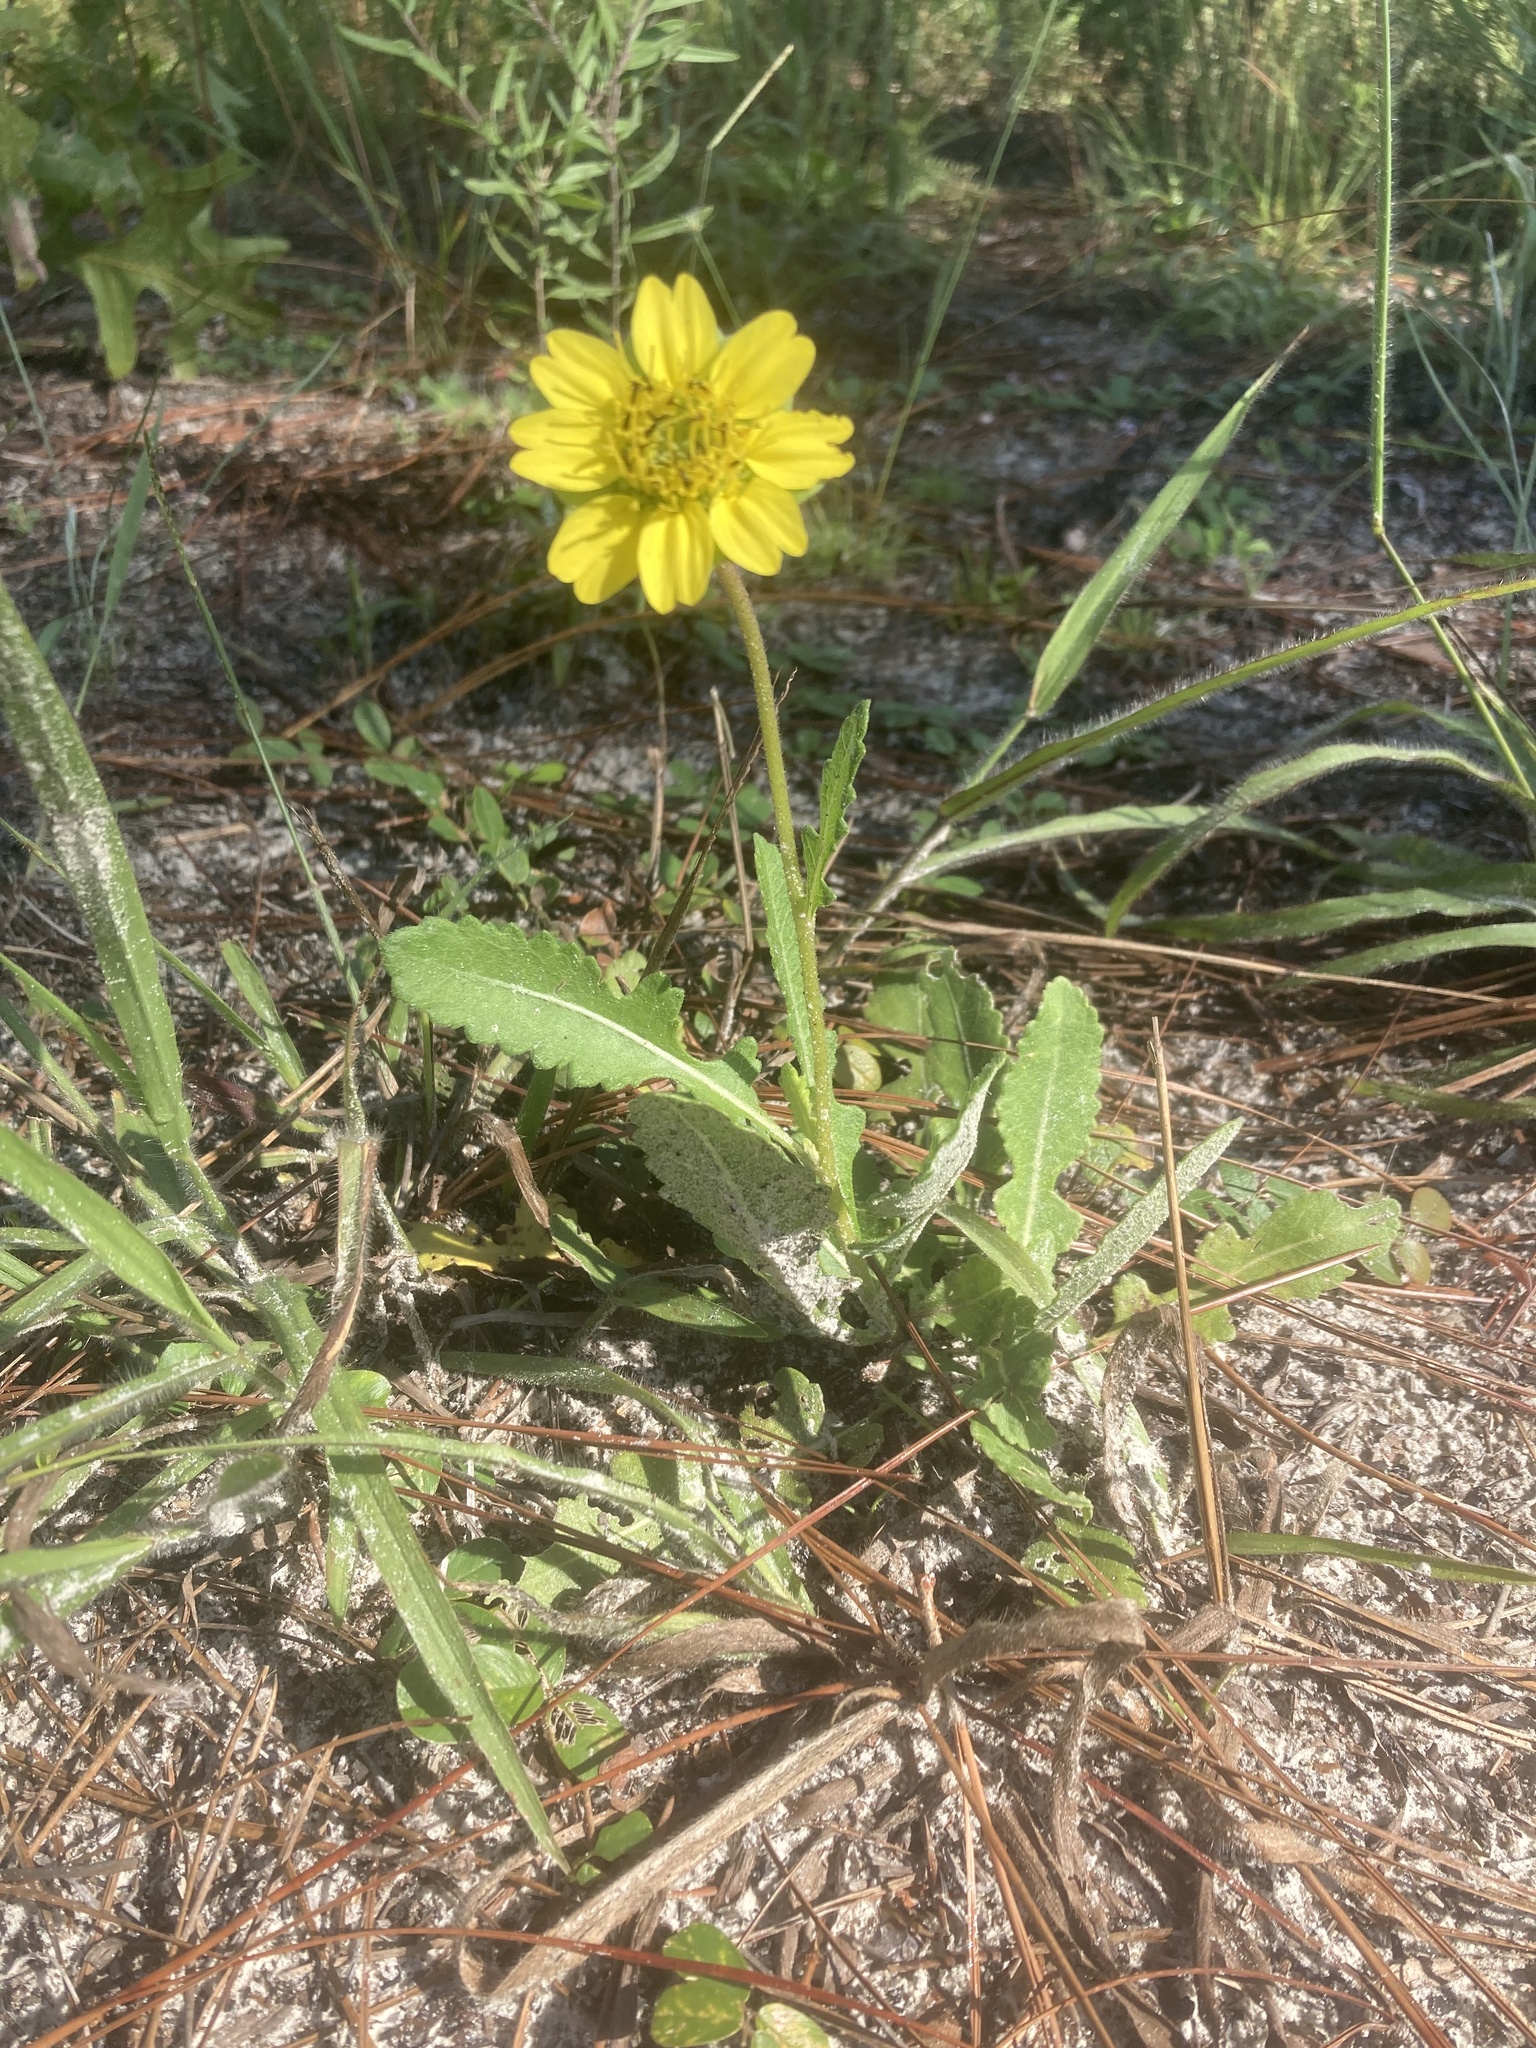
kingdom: Plantae
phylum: Tracheophyta
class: Magnoliopsida
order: Asterales
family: Asteraceae
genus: Berlandiera
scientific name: Berlandiera subacaulis
